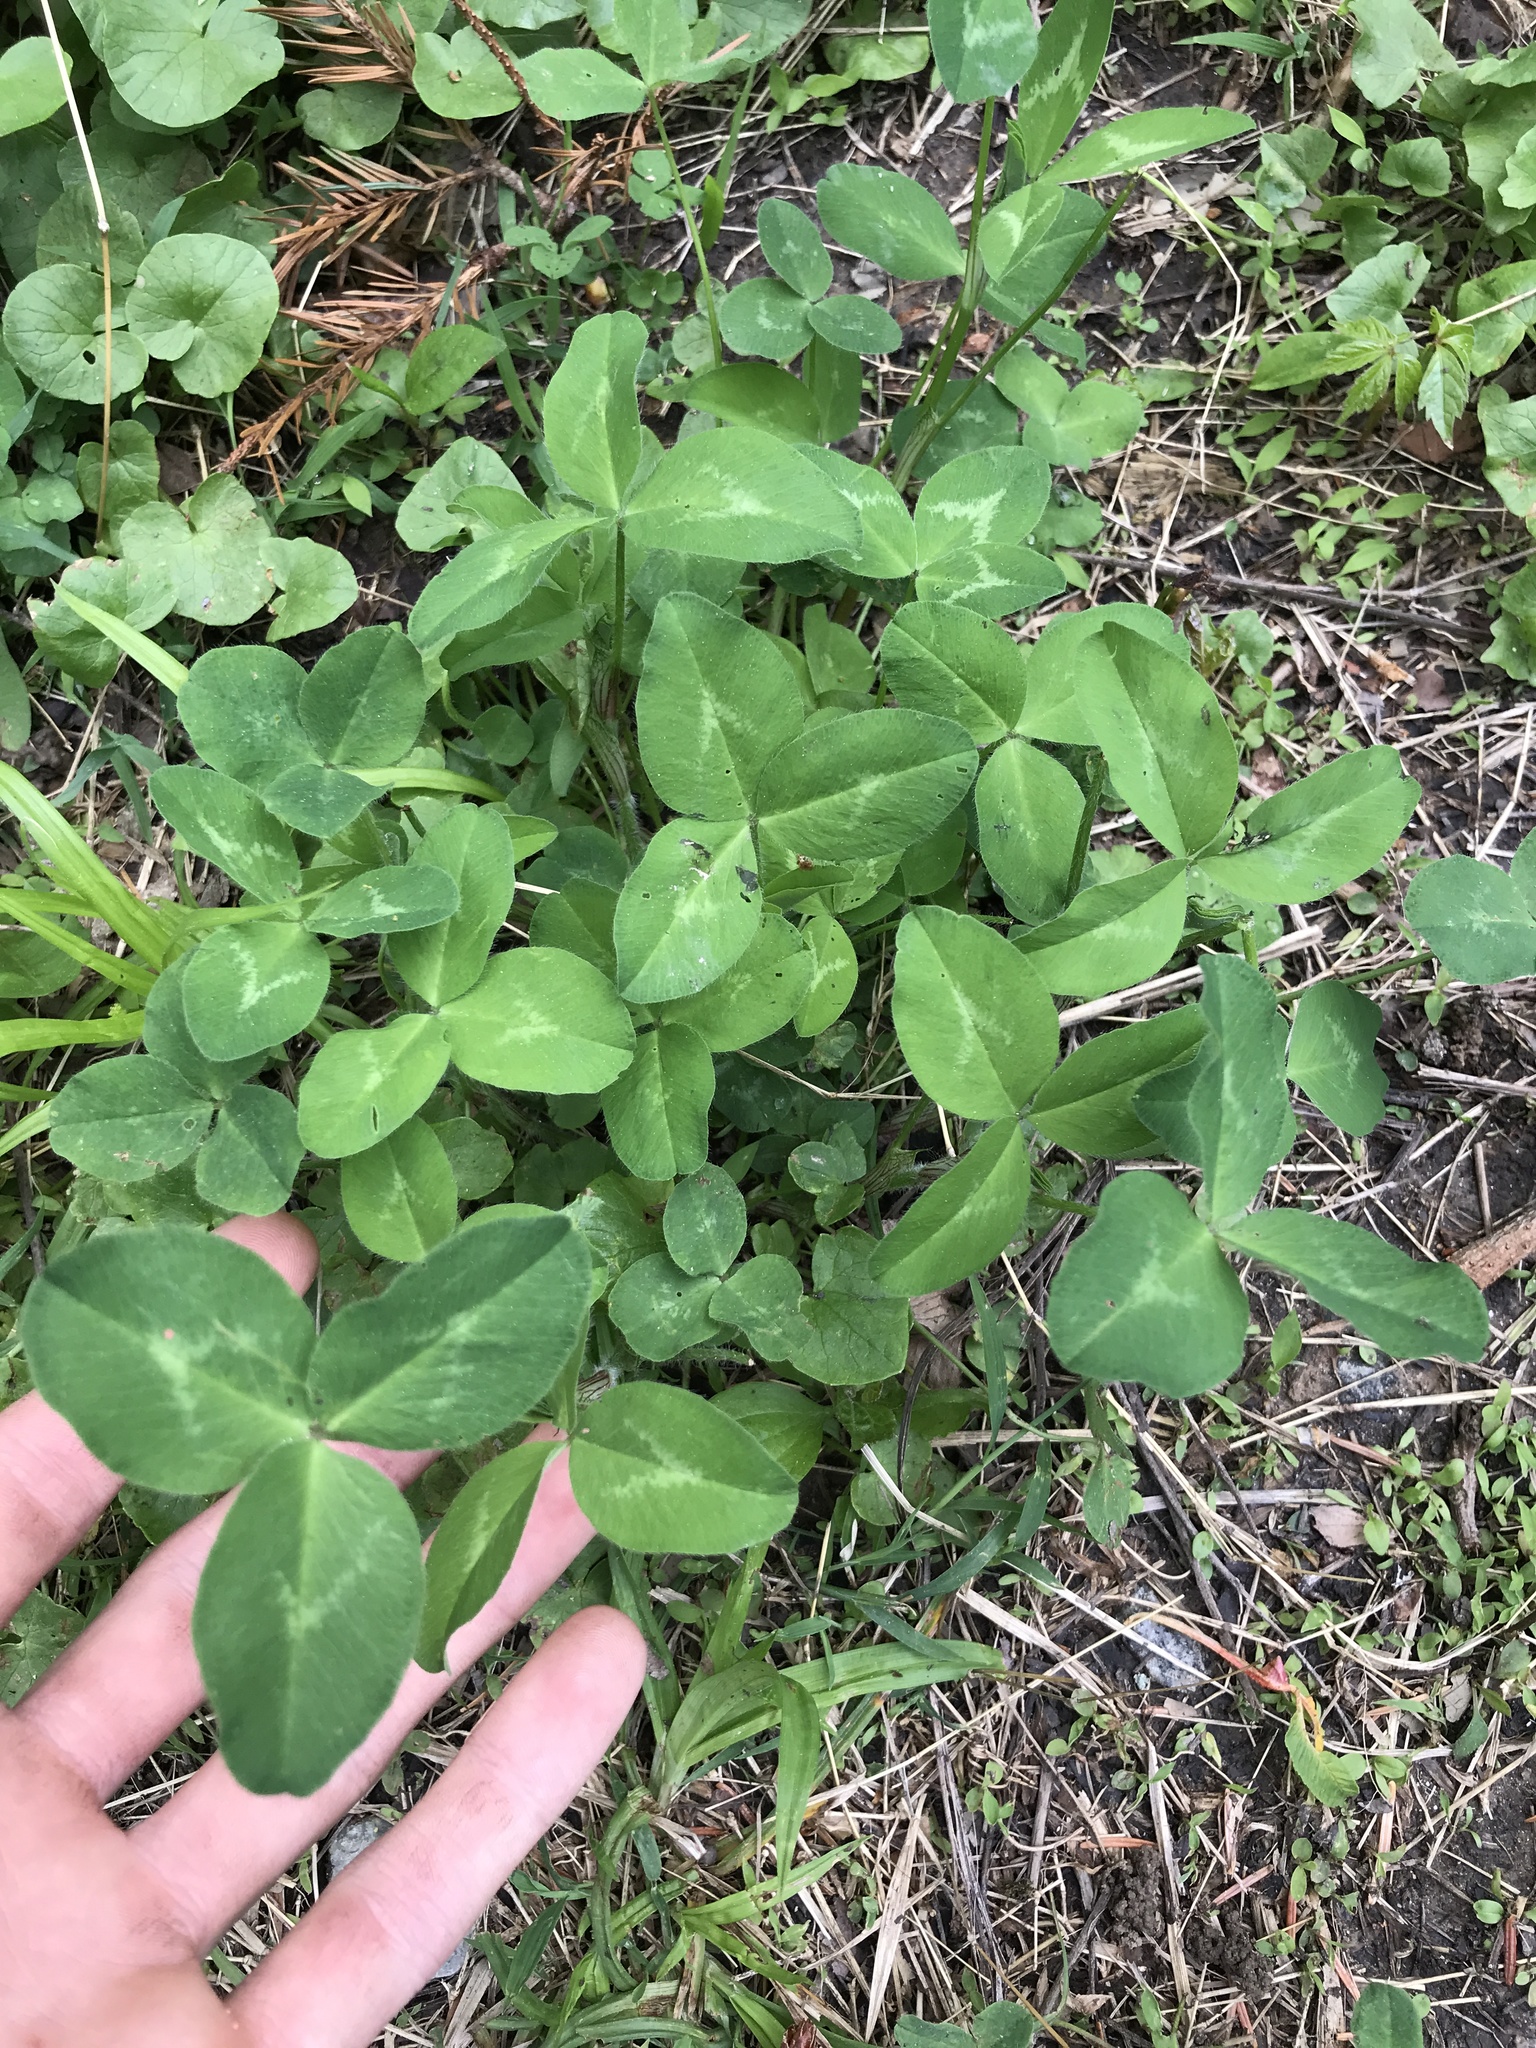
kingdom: Plantae
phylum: Tracheophyta
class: Magnoliopsida
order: Fabales
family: Fabaceae
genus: Trifolium
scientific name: Trifolium pratense
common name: Red clover
